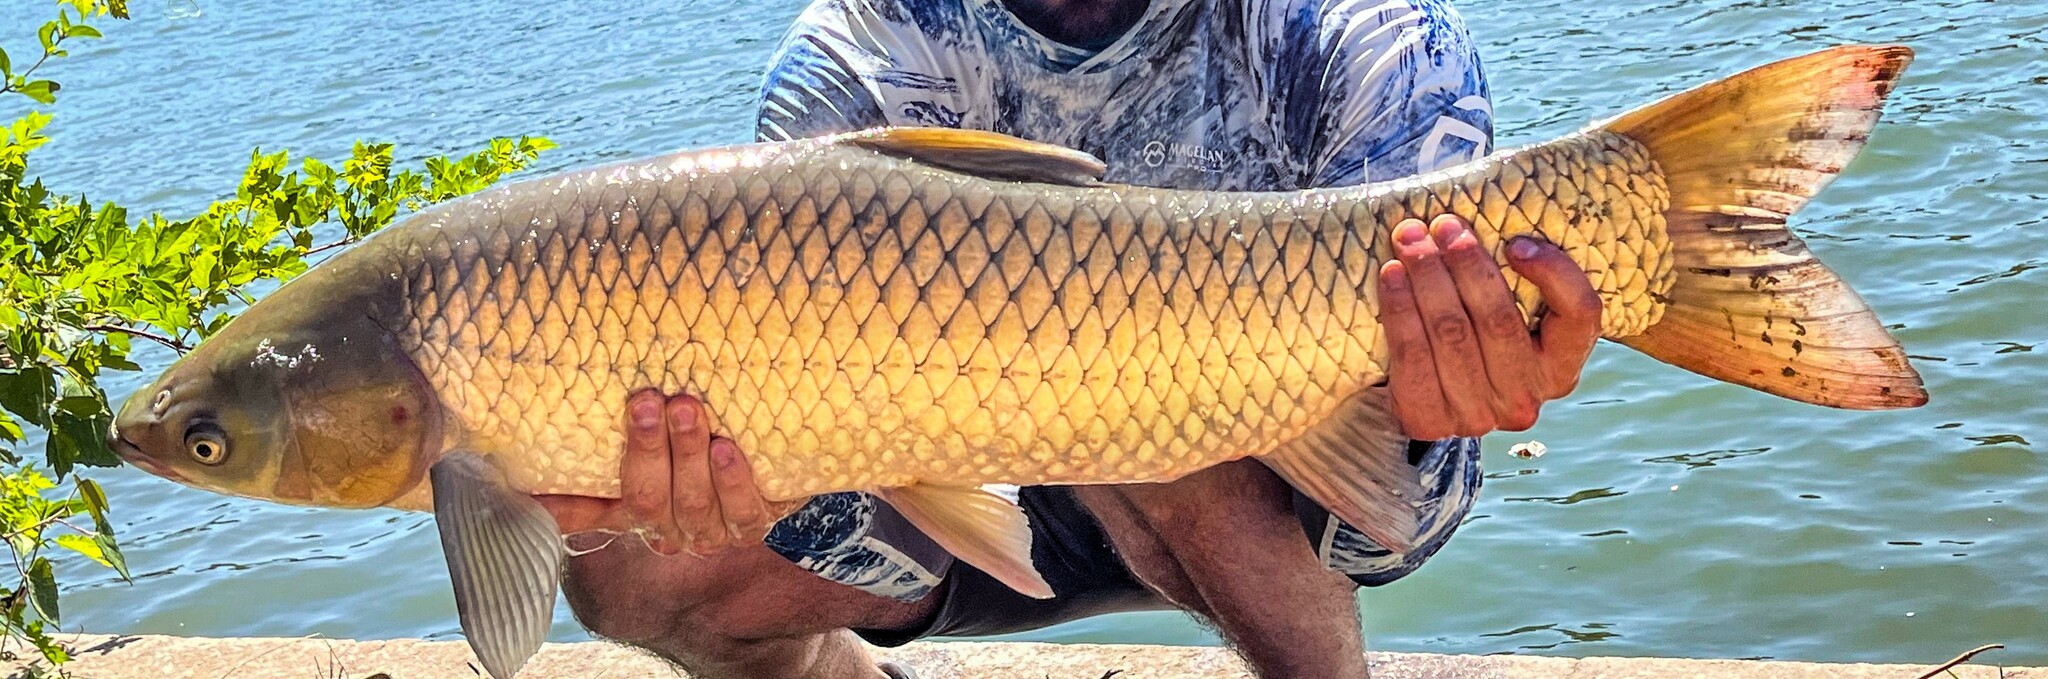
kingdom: Animalia
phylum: Chordata
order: Cypriniformes
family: Cyprinidae
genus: Ctenopharyngodon
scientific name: Ctenopharyngodon idella
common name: Grass carp
